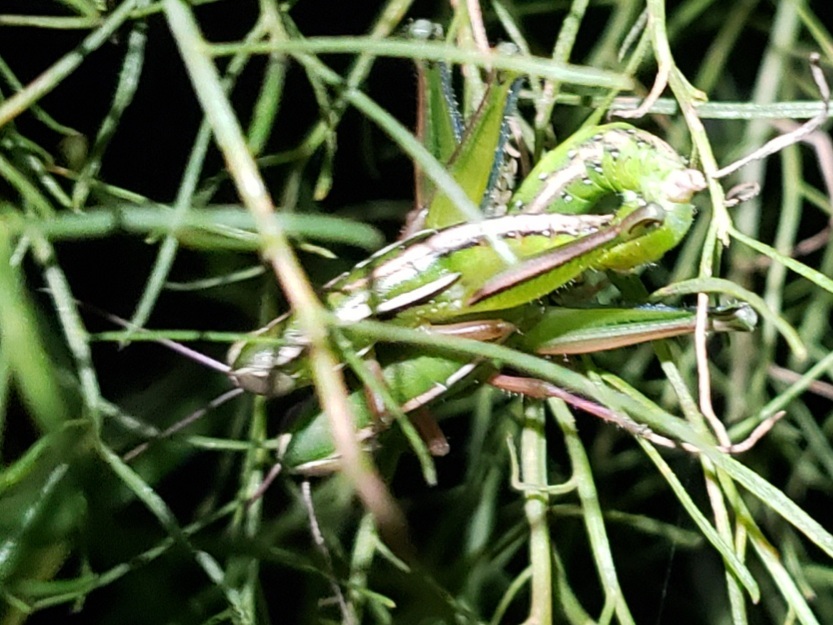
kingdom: Animalia
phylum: Arthropoda
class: Insecta
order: Orthoptera
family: Acrididae
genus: Aptenopedes
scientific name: Aptenopedes sphenarioides
